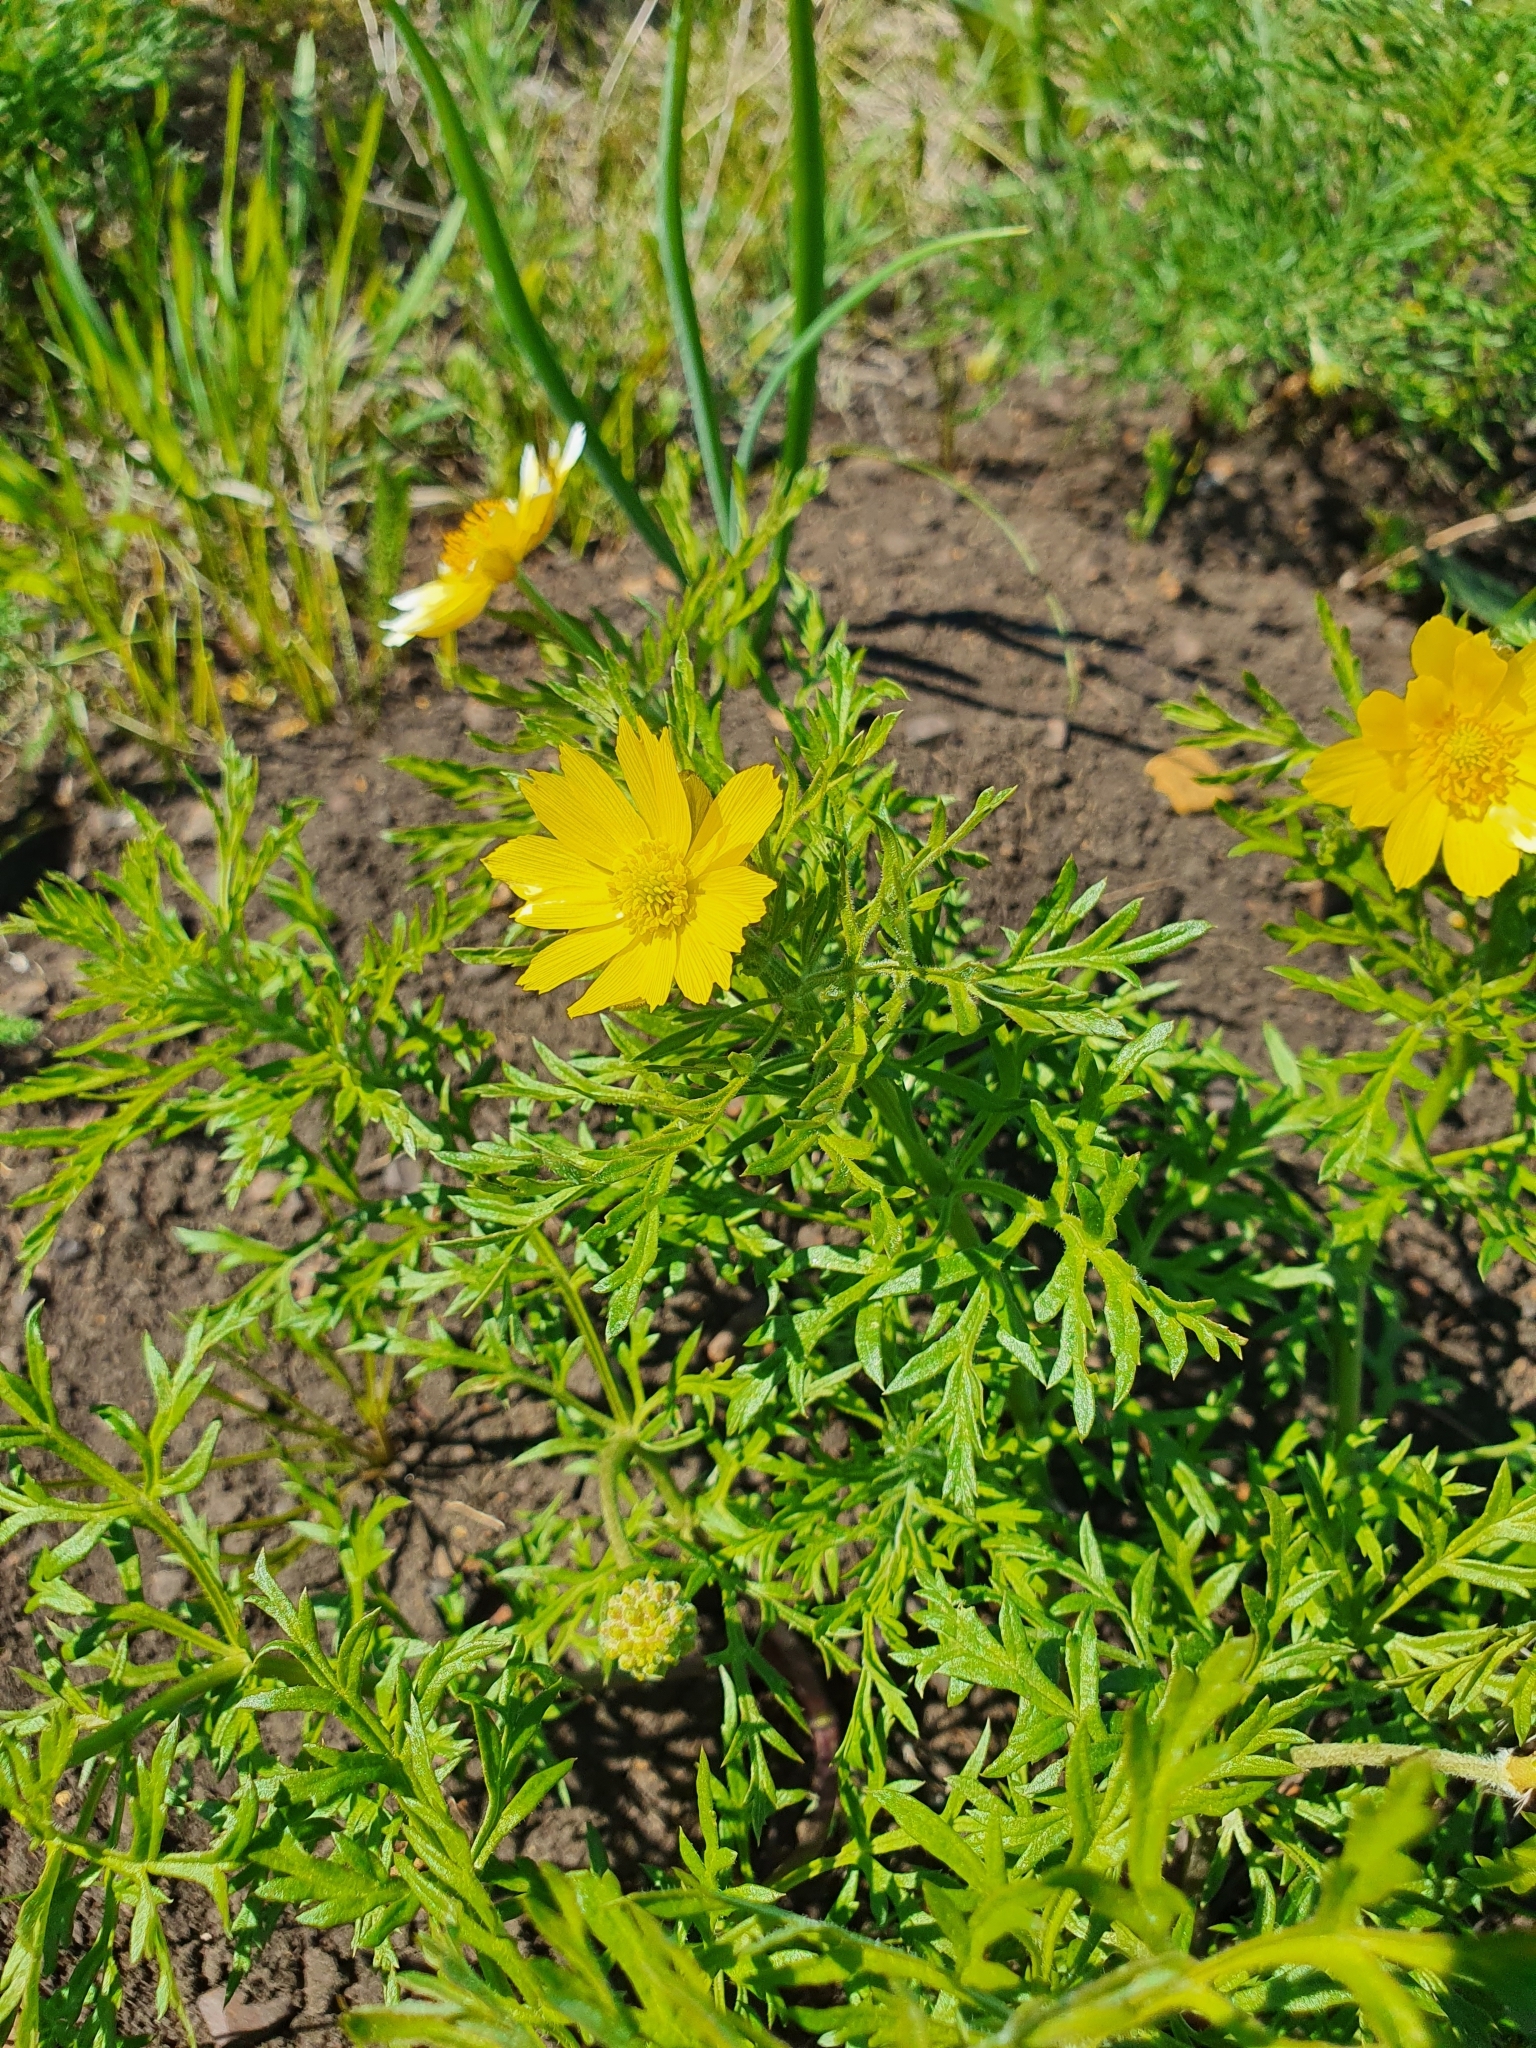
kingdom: Plantae
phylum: Tracheophyta
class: Magnoliopsida
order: Ranunculales
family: Ranunculaceae
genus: Adonis
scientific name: Adonis volgensis
